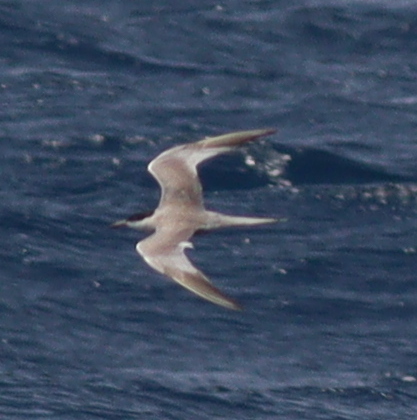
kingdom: Animalia
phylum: Chordata
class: Aves
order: Charadriiformes
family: Laridae
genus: Sterna
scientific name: Sterna repressa
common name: White-cheeked tern
